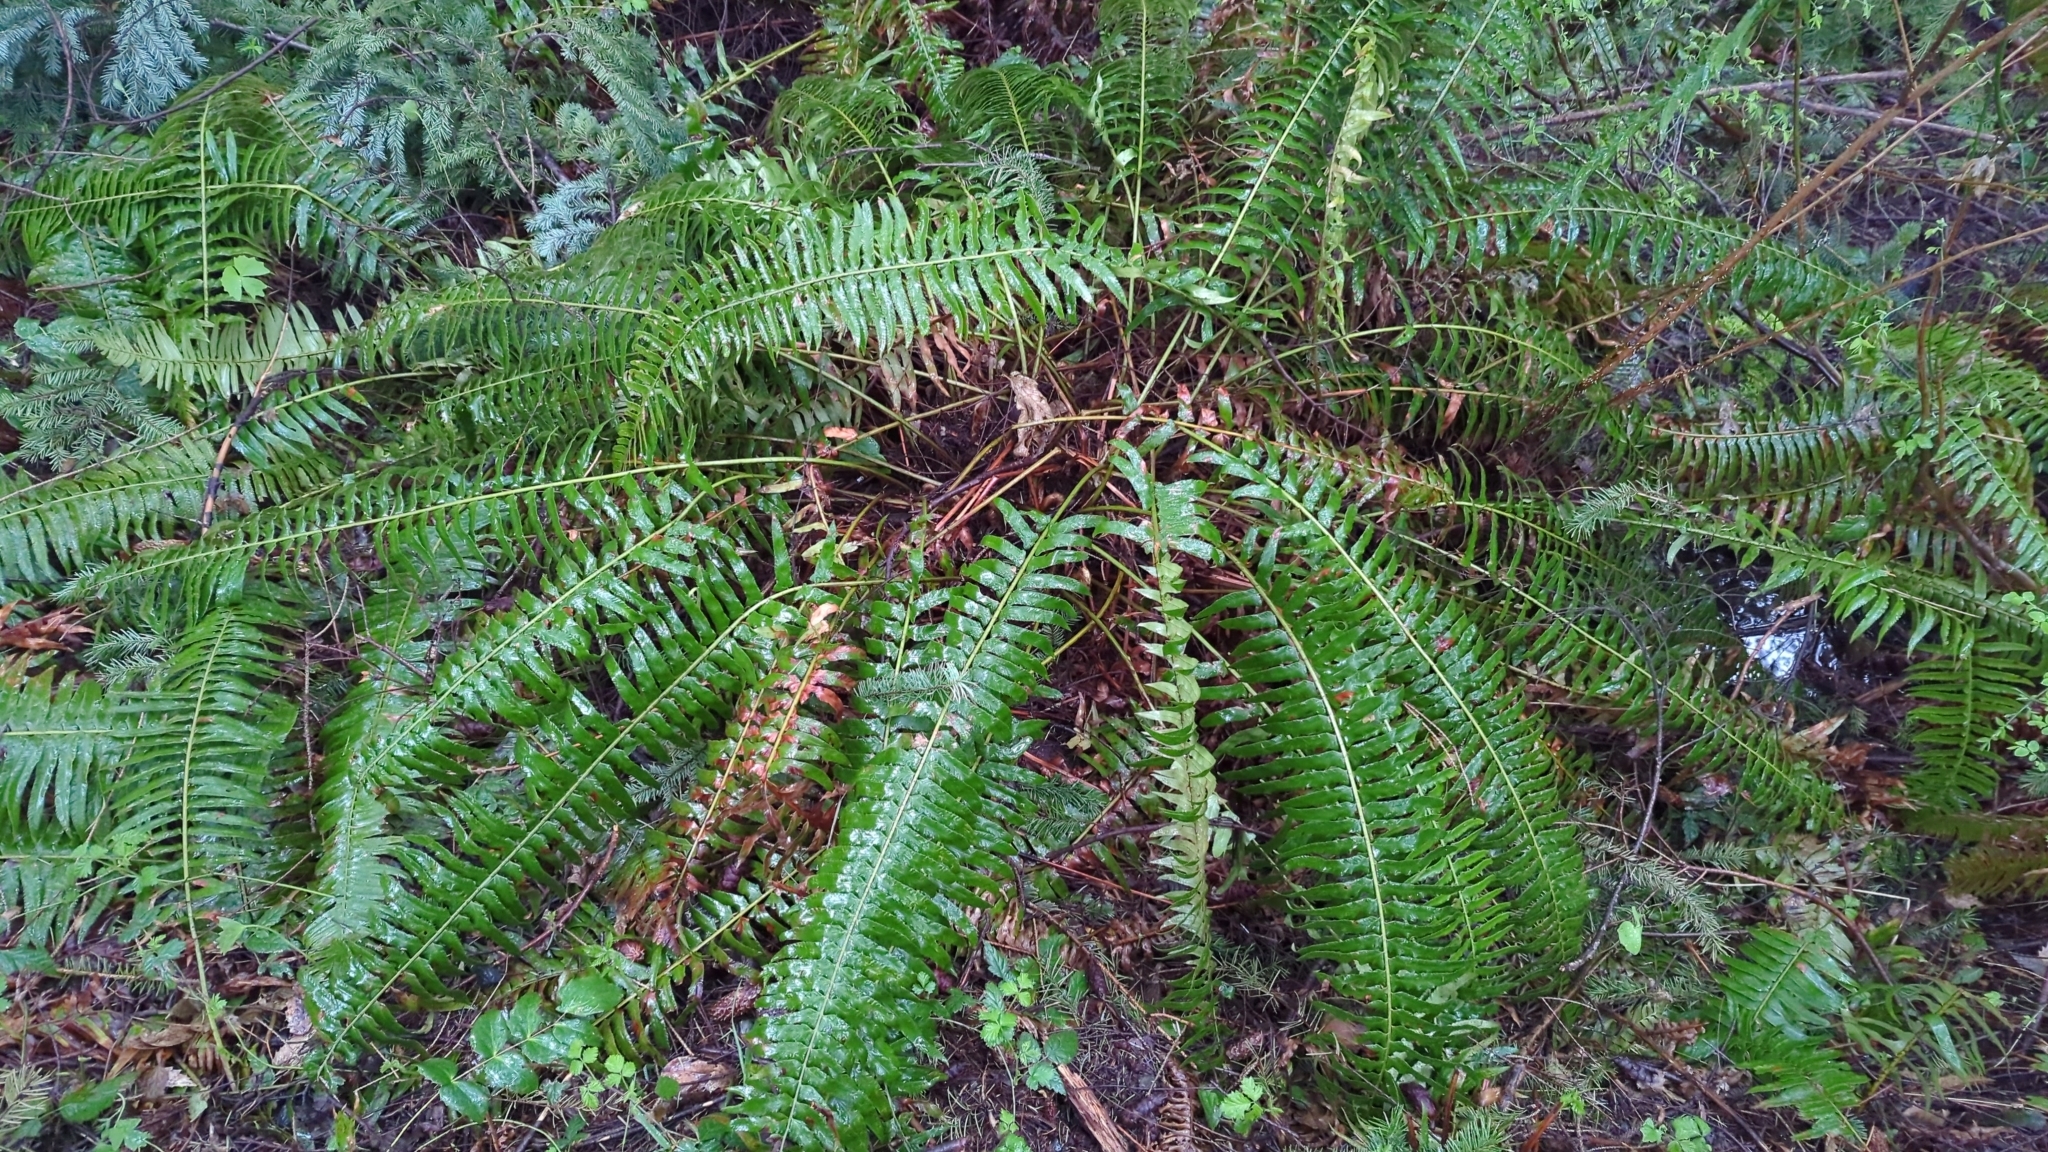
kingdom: Plantae
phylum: Tracheophyta
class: Polypodiopsida
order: Polypodiales
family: Dryopteridaceae
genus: Polystichum
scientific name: Polystichum munitum
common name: Western sword-fern
